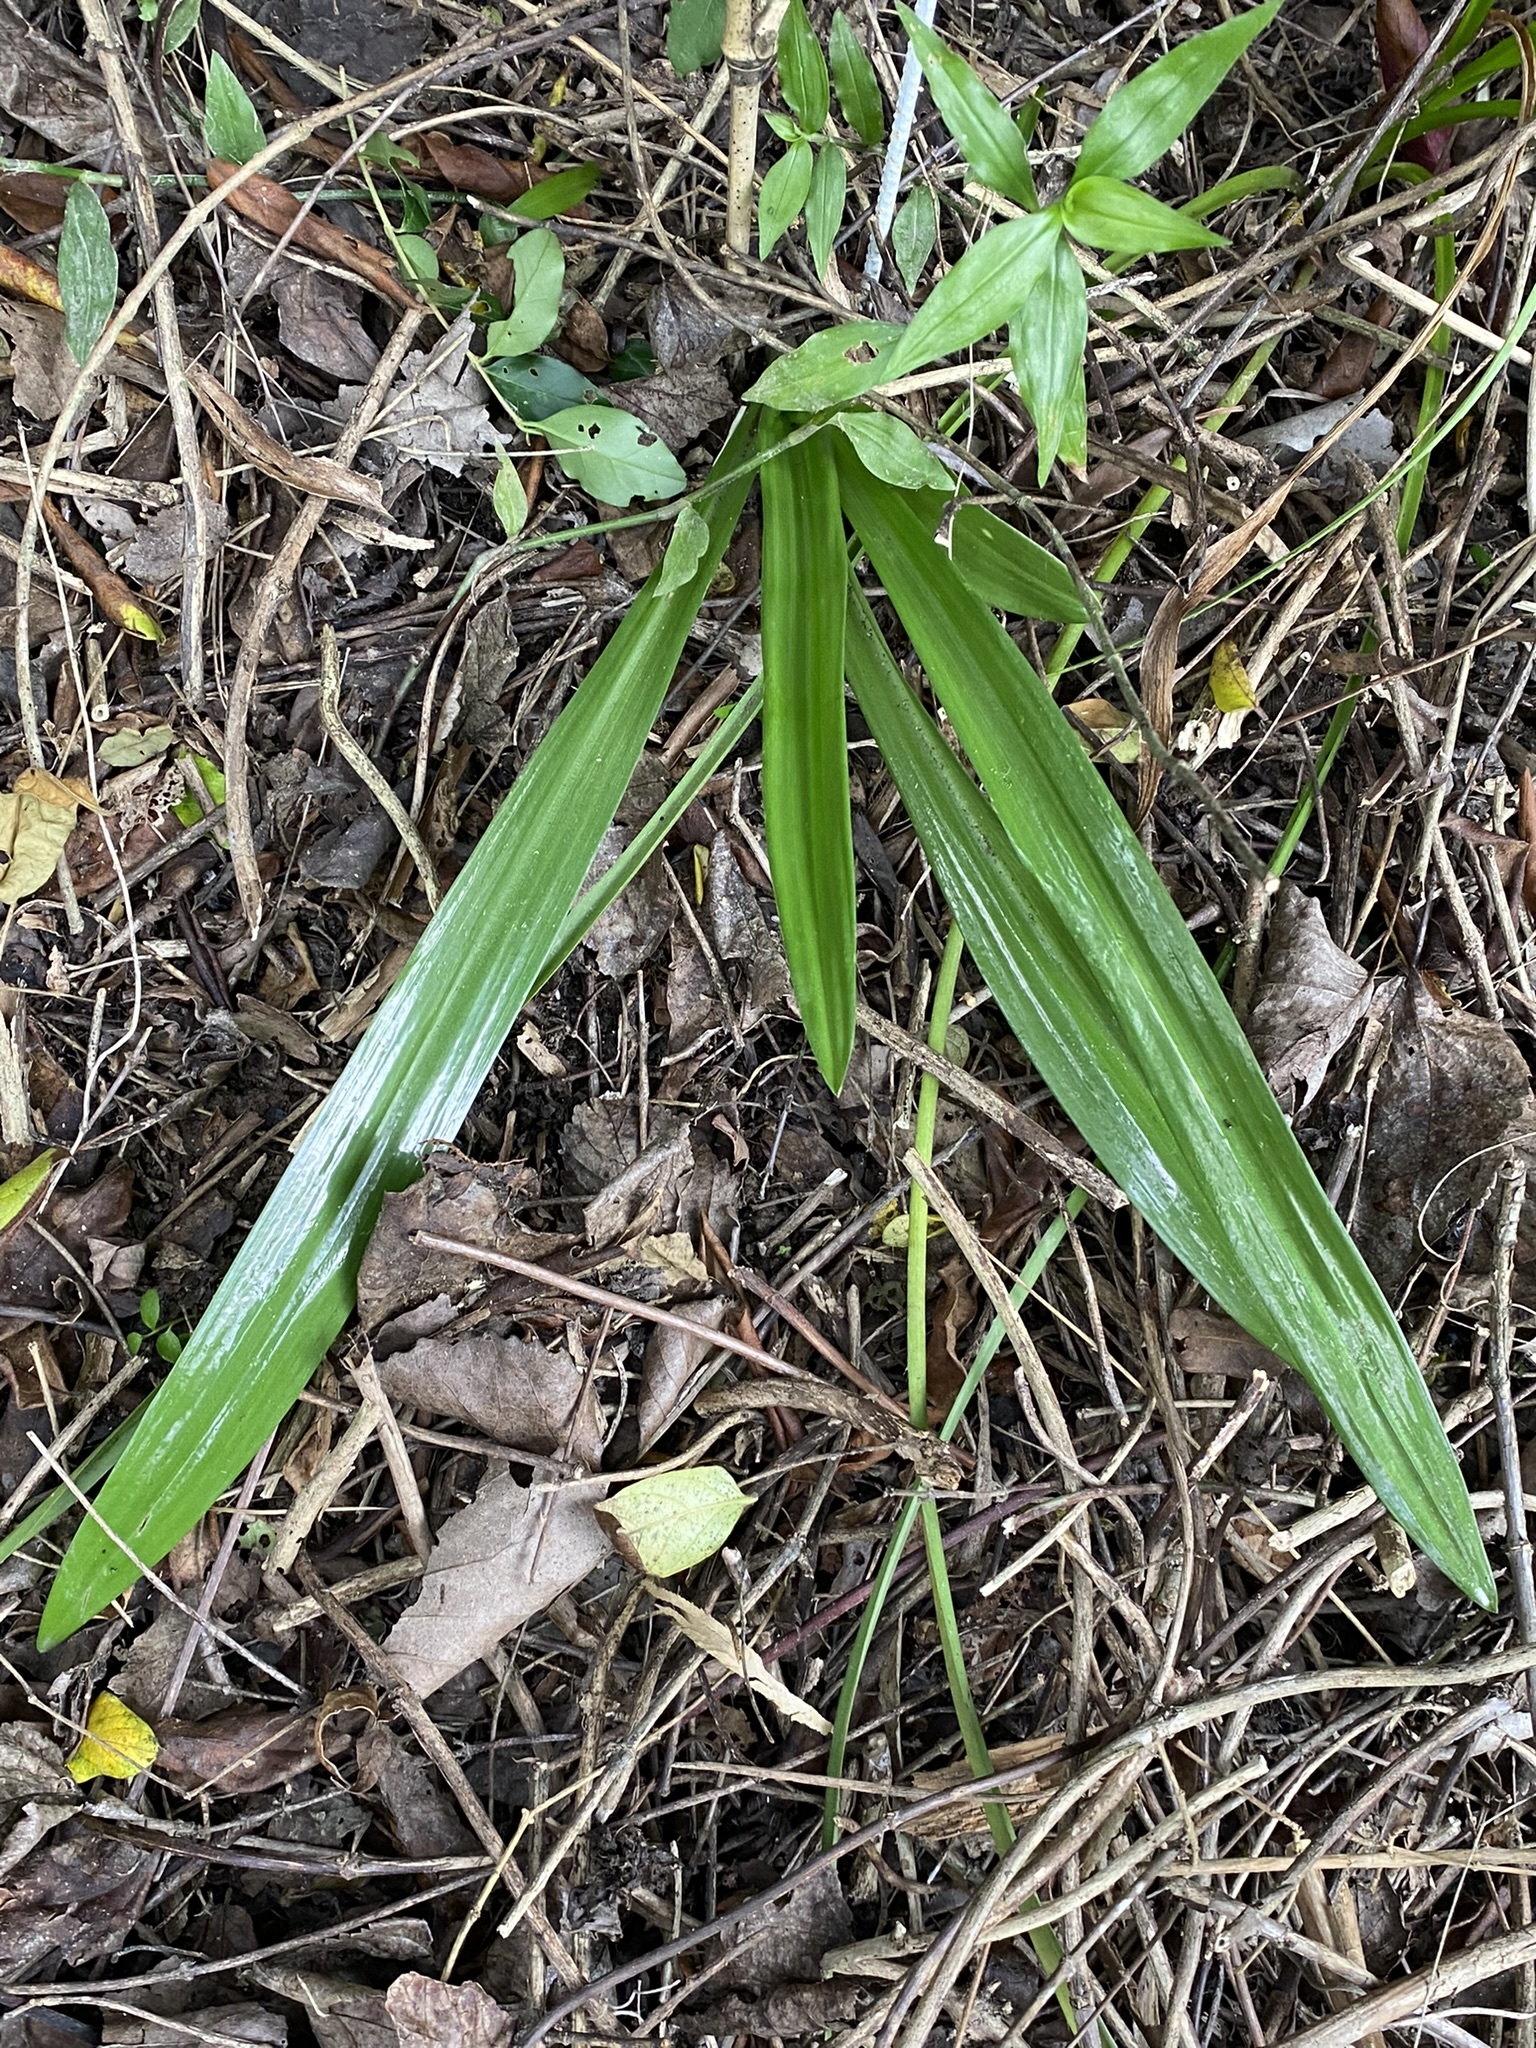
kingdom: Plantae
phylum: Tracheophyta
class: Liliopsida
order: Asparagales
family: Orchidaceae
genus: Chloraea
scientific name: Chloraea membranacea
